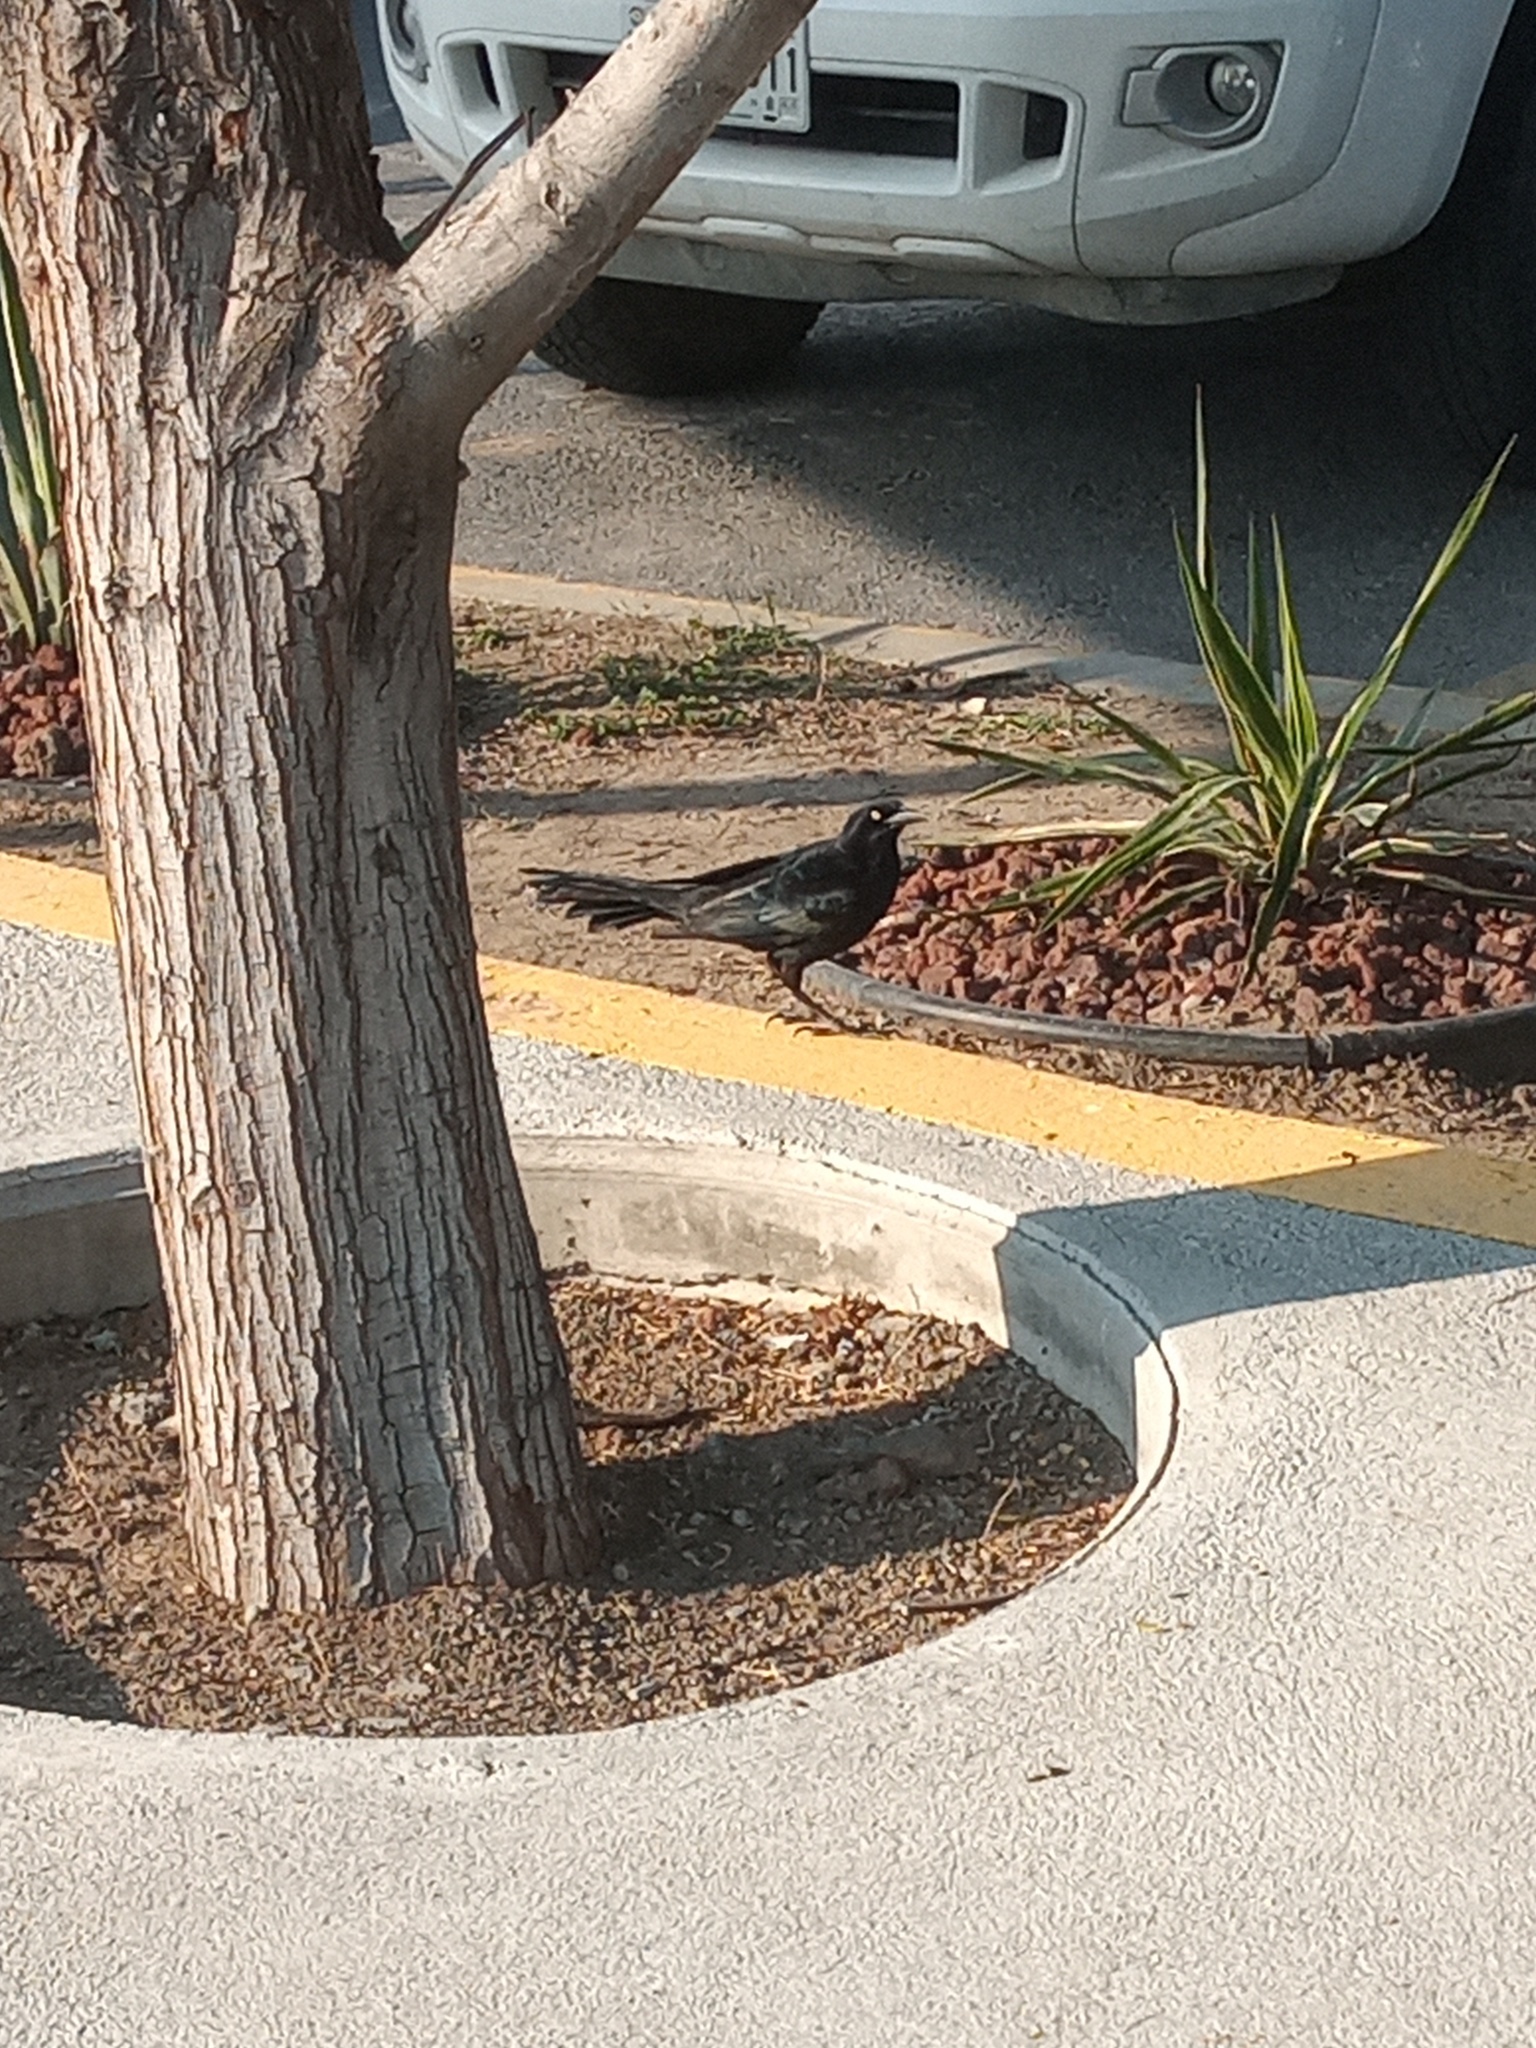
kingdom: Animalia
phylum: Chordata
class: Aves
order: Passeriformes
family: Icteridae
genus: Quiscalus
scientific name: Quiscalus mexicanus
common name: Great-tailed grackle
